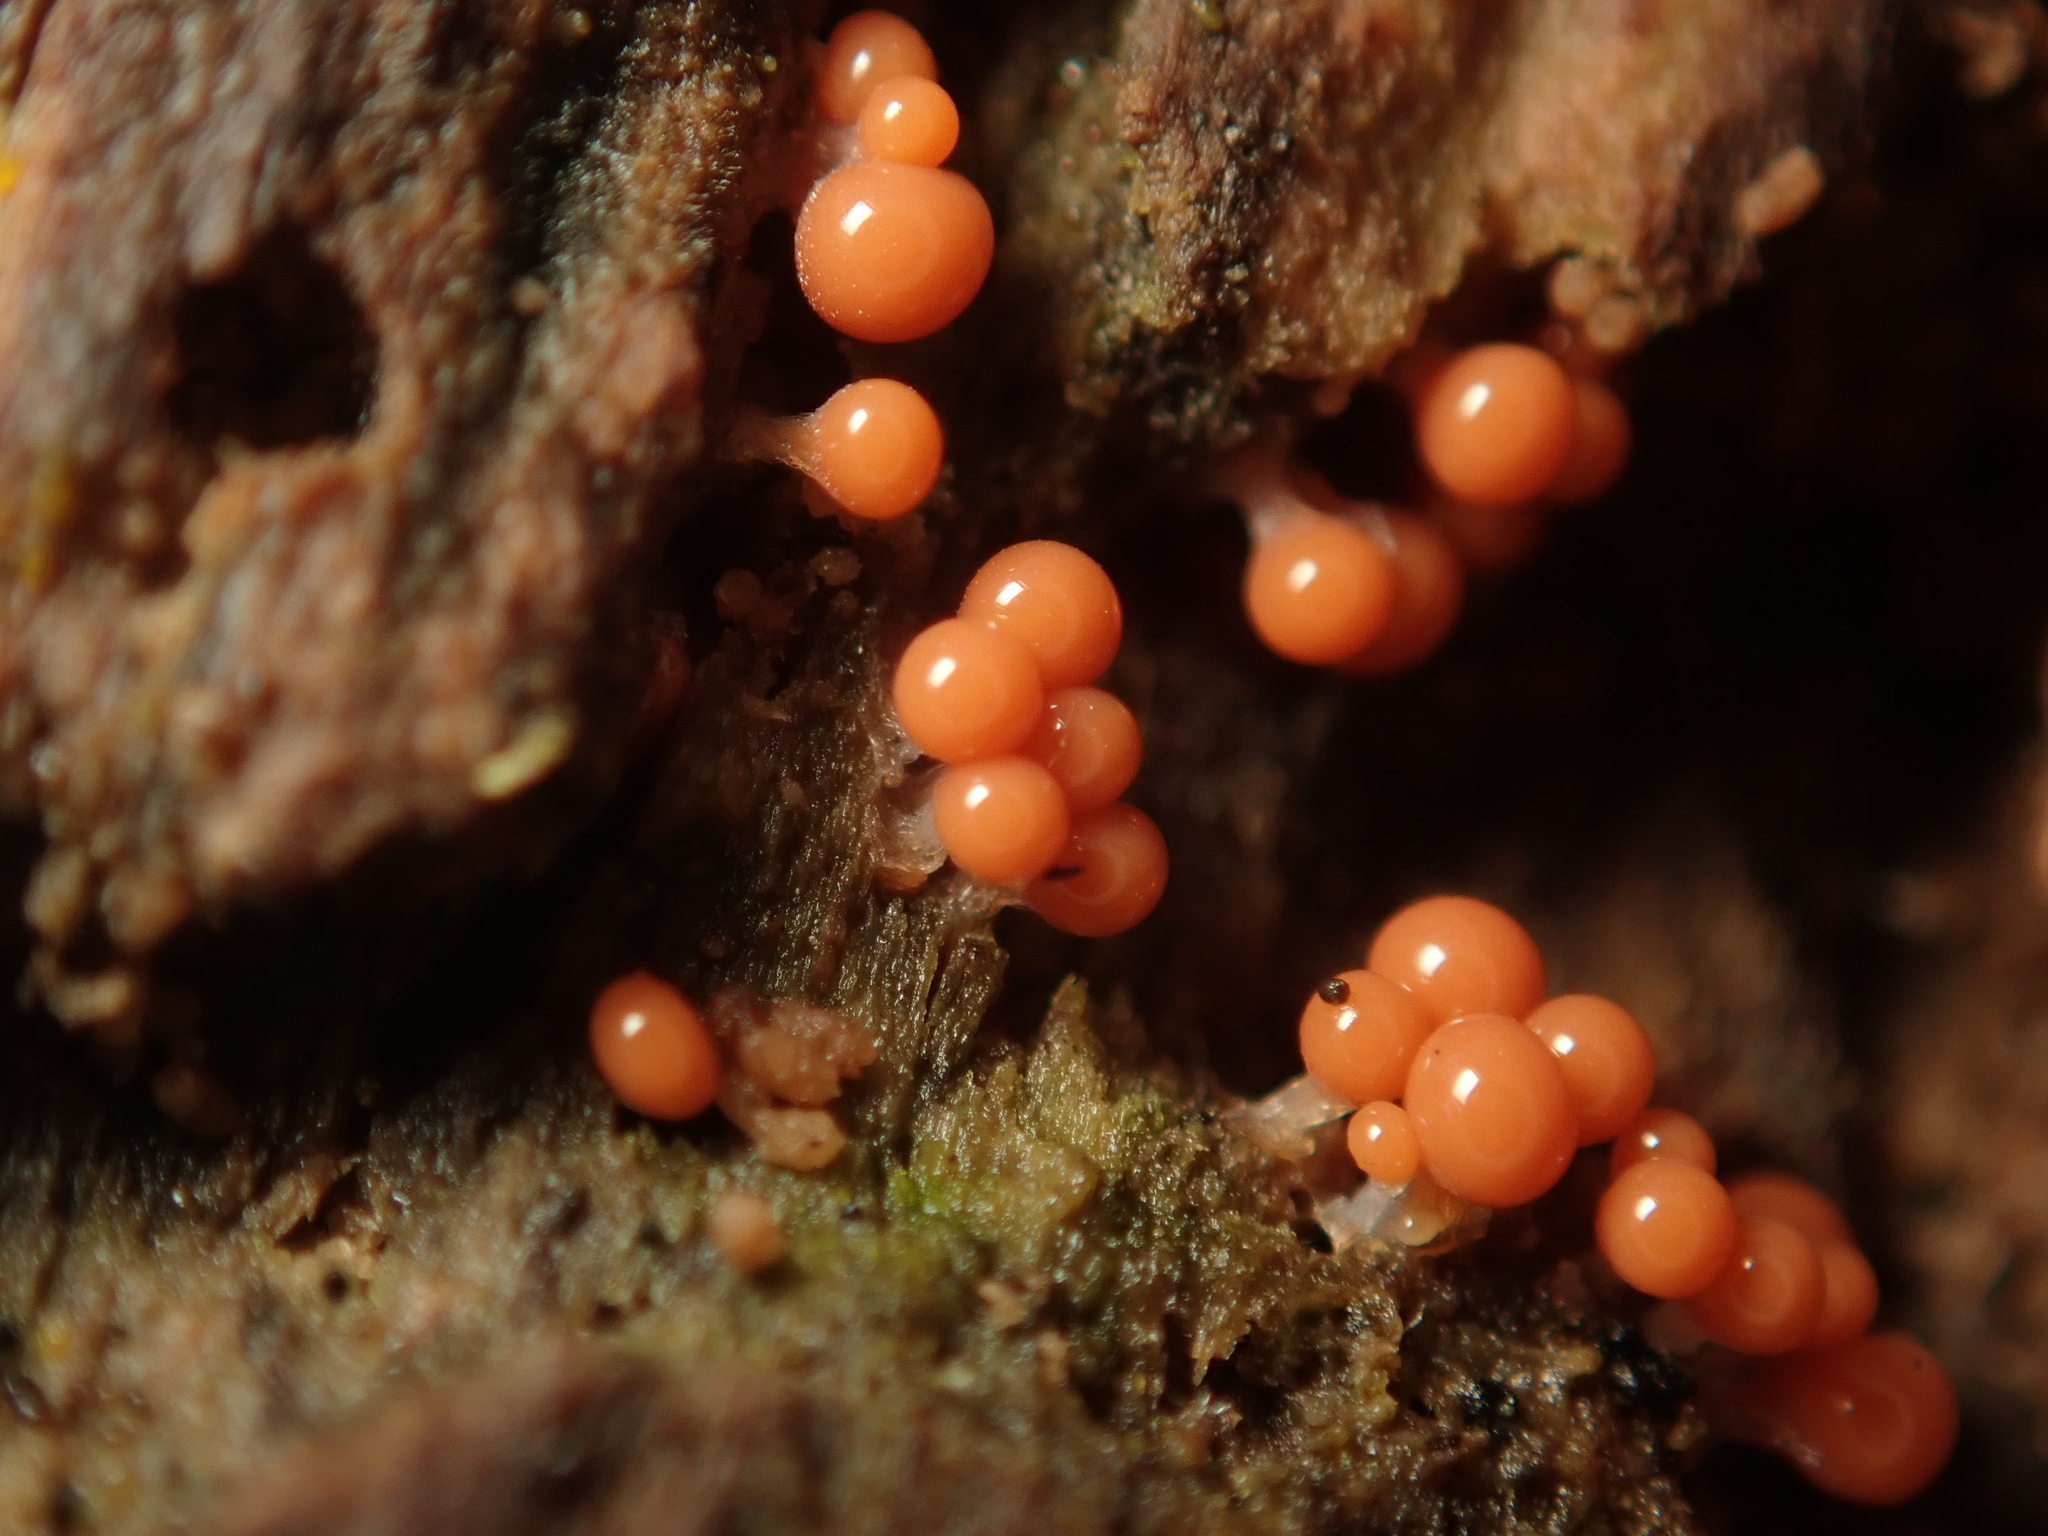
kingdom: Protozoa
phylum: Mycetozoa
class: Myxomycetes
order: Trichiales
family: Arcyriaceae
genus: Hemitrichia
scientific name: Hemitrichia decipiens
